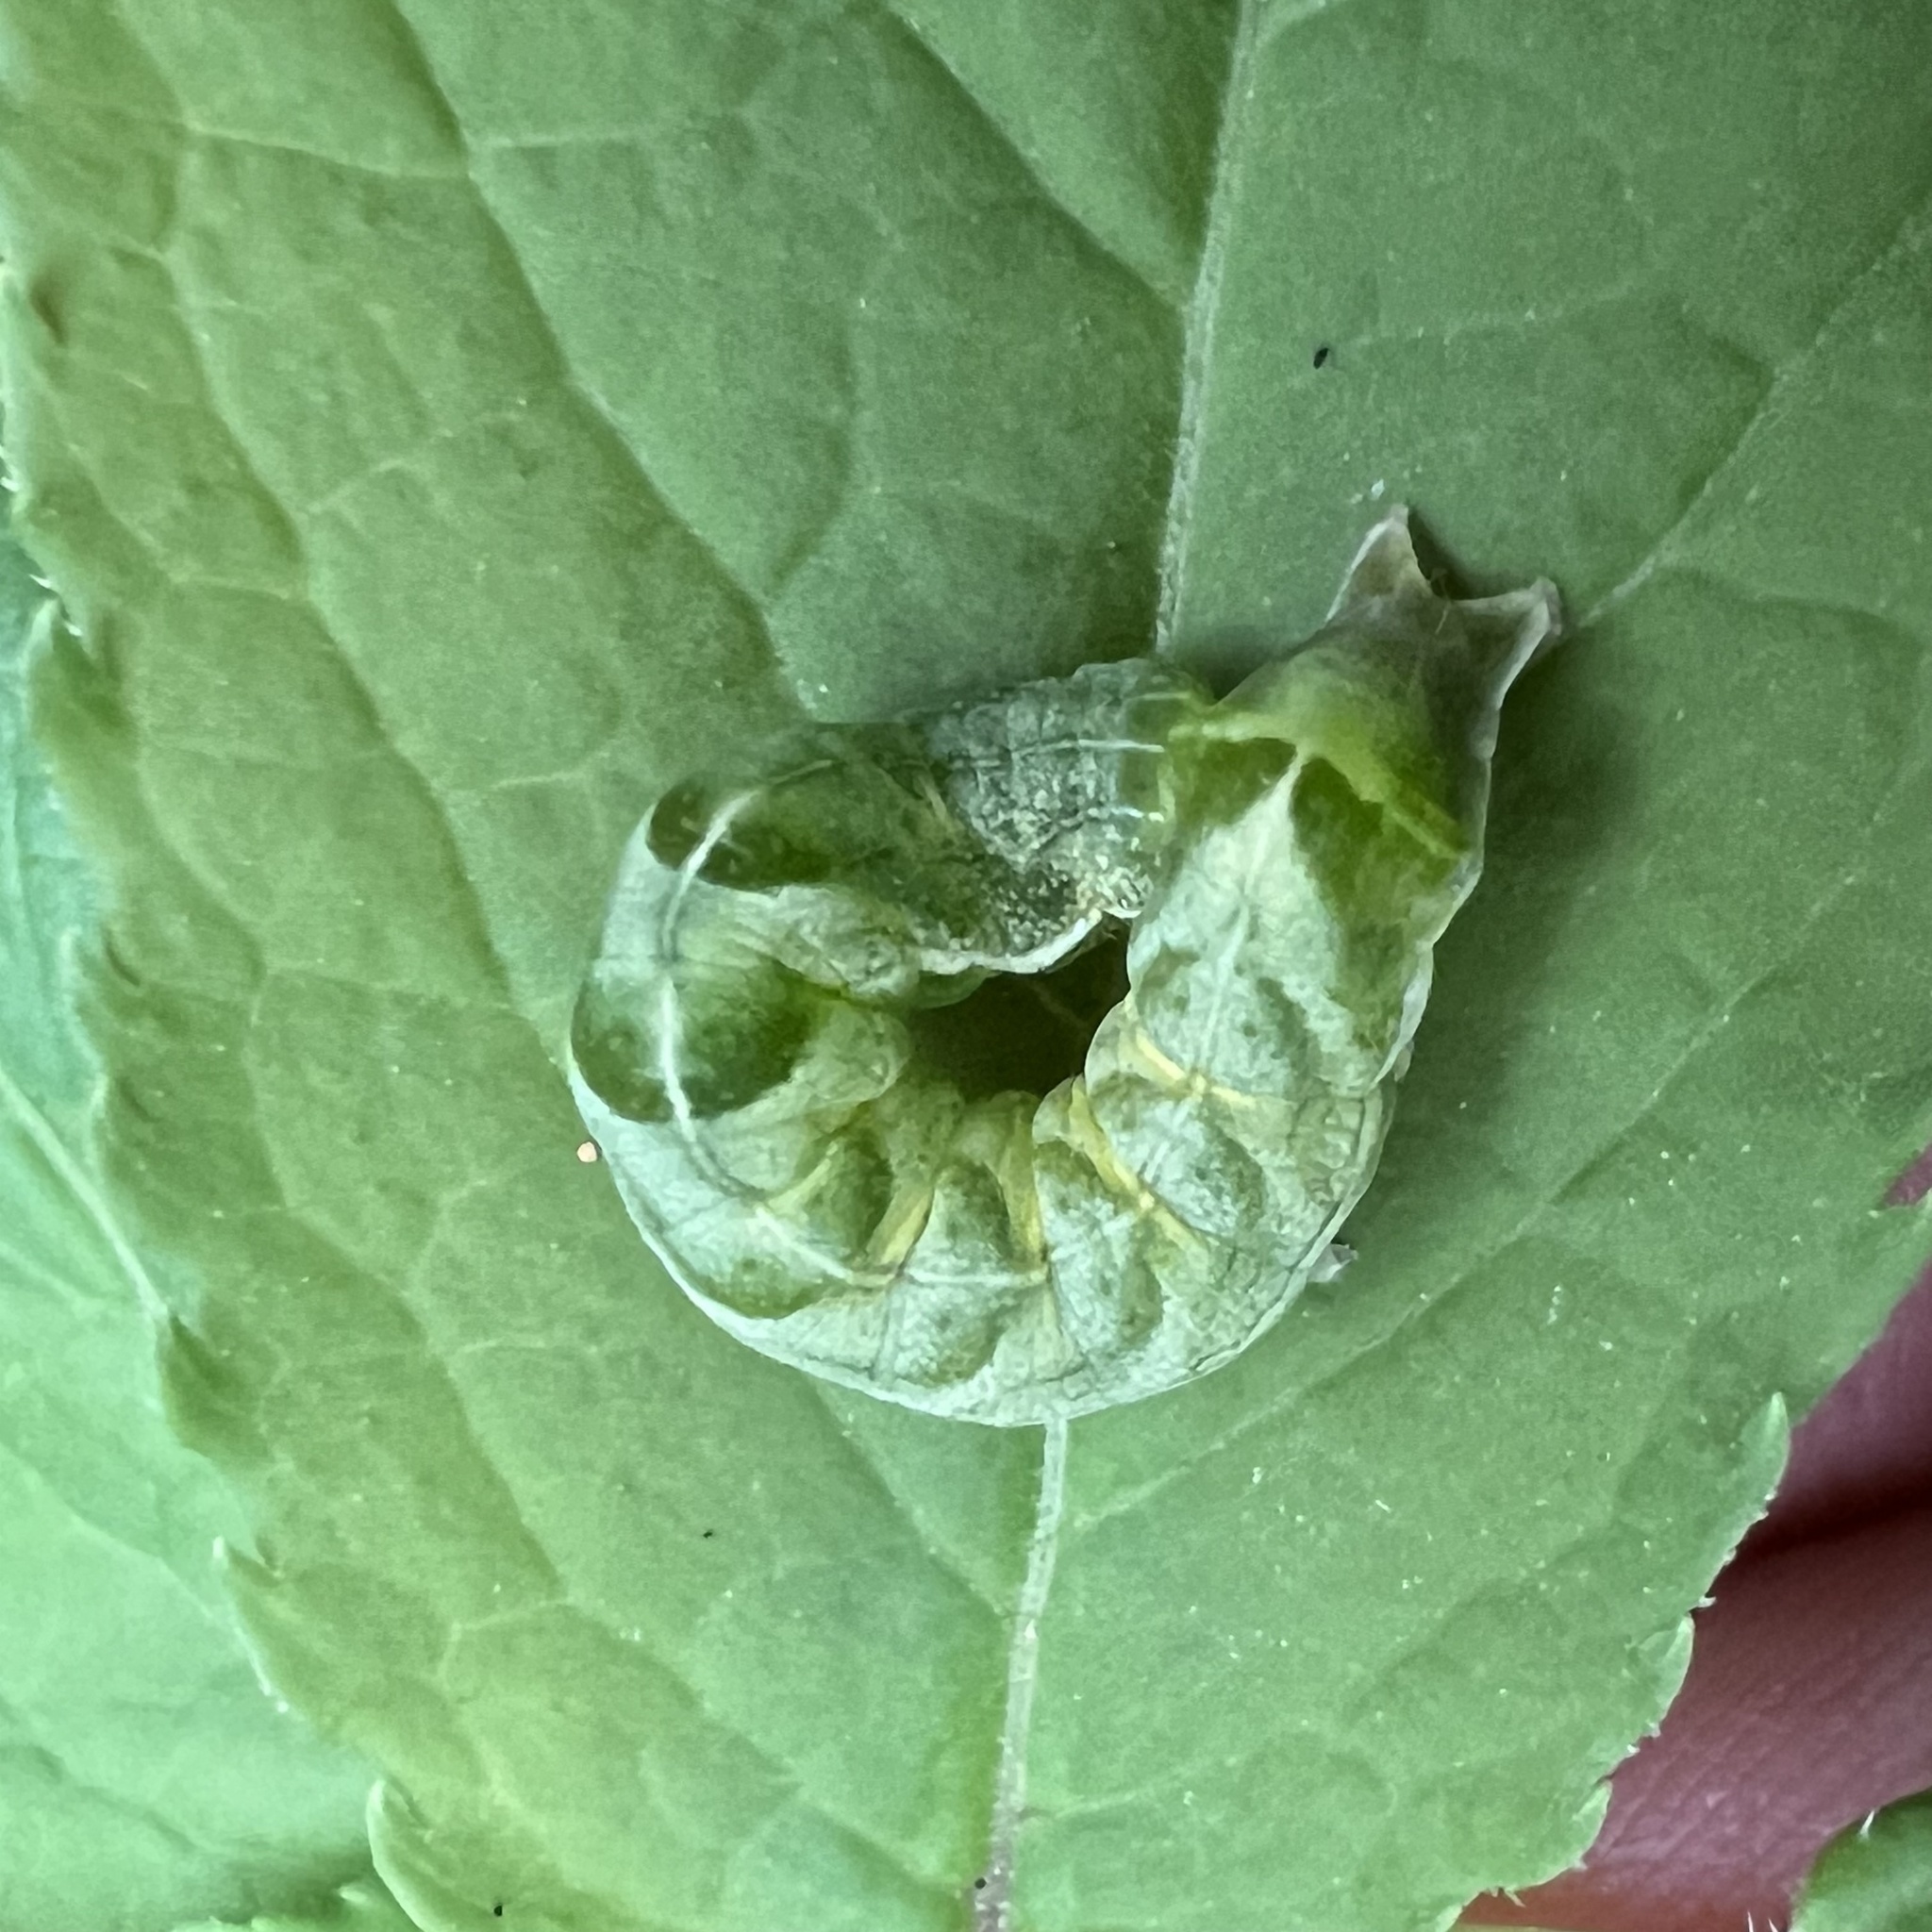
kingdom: Animalia
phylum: Arthropoda
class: Insecta
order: Lepidoptera
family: Noctuidae
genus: Melanchra
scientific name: Melanchra adjuncta
